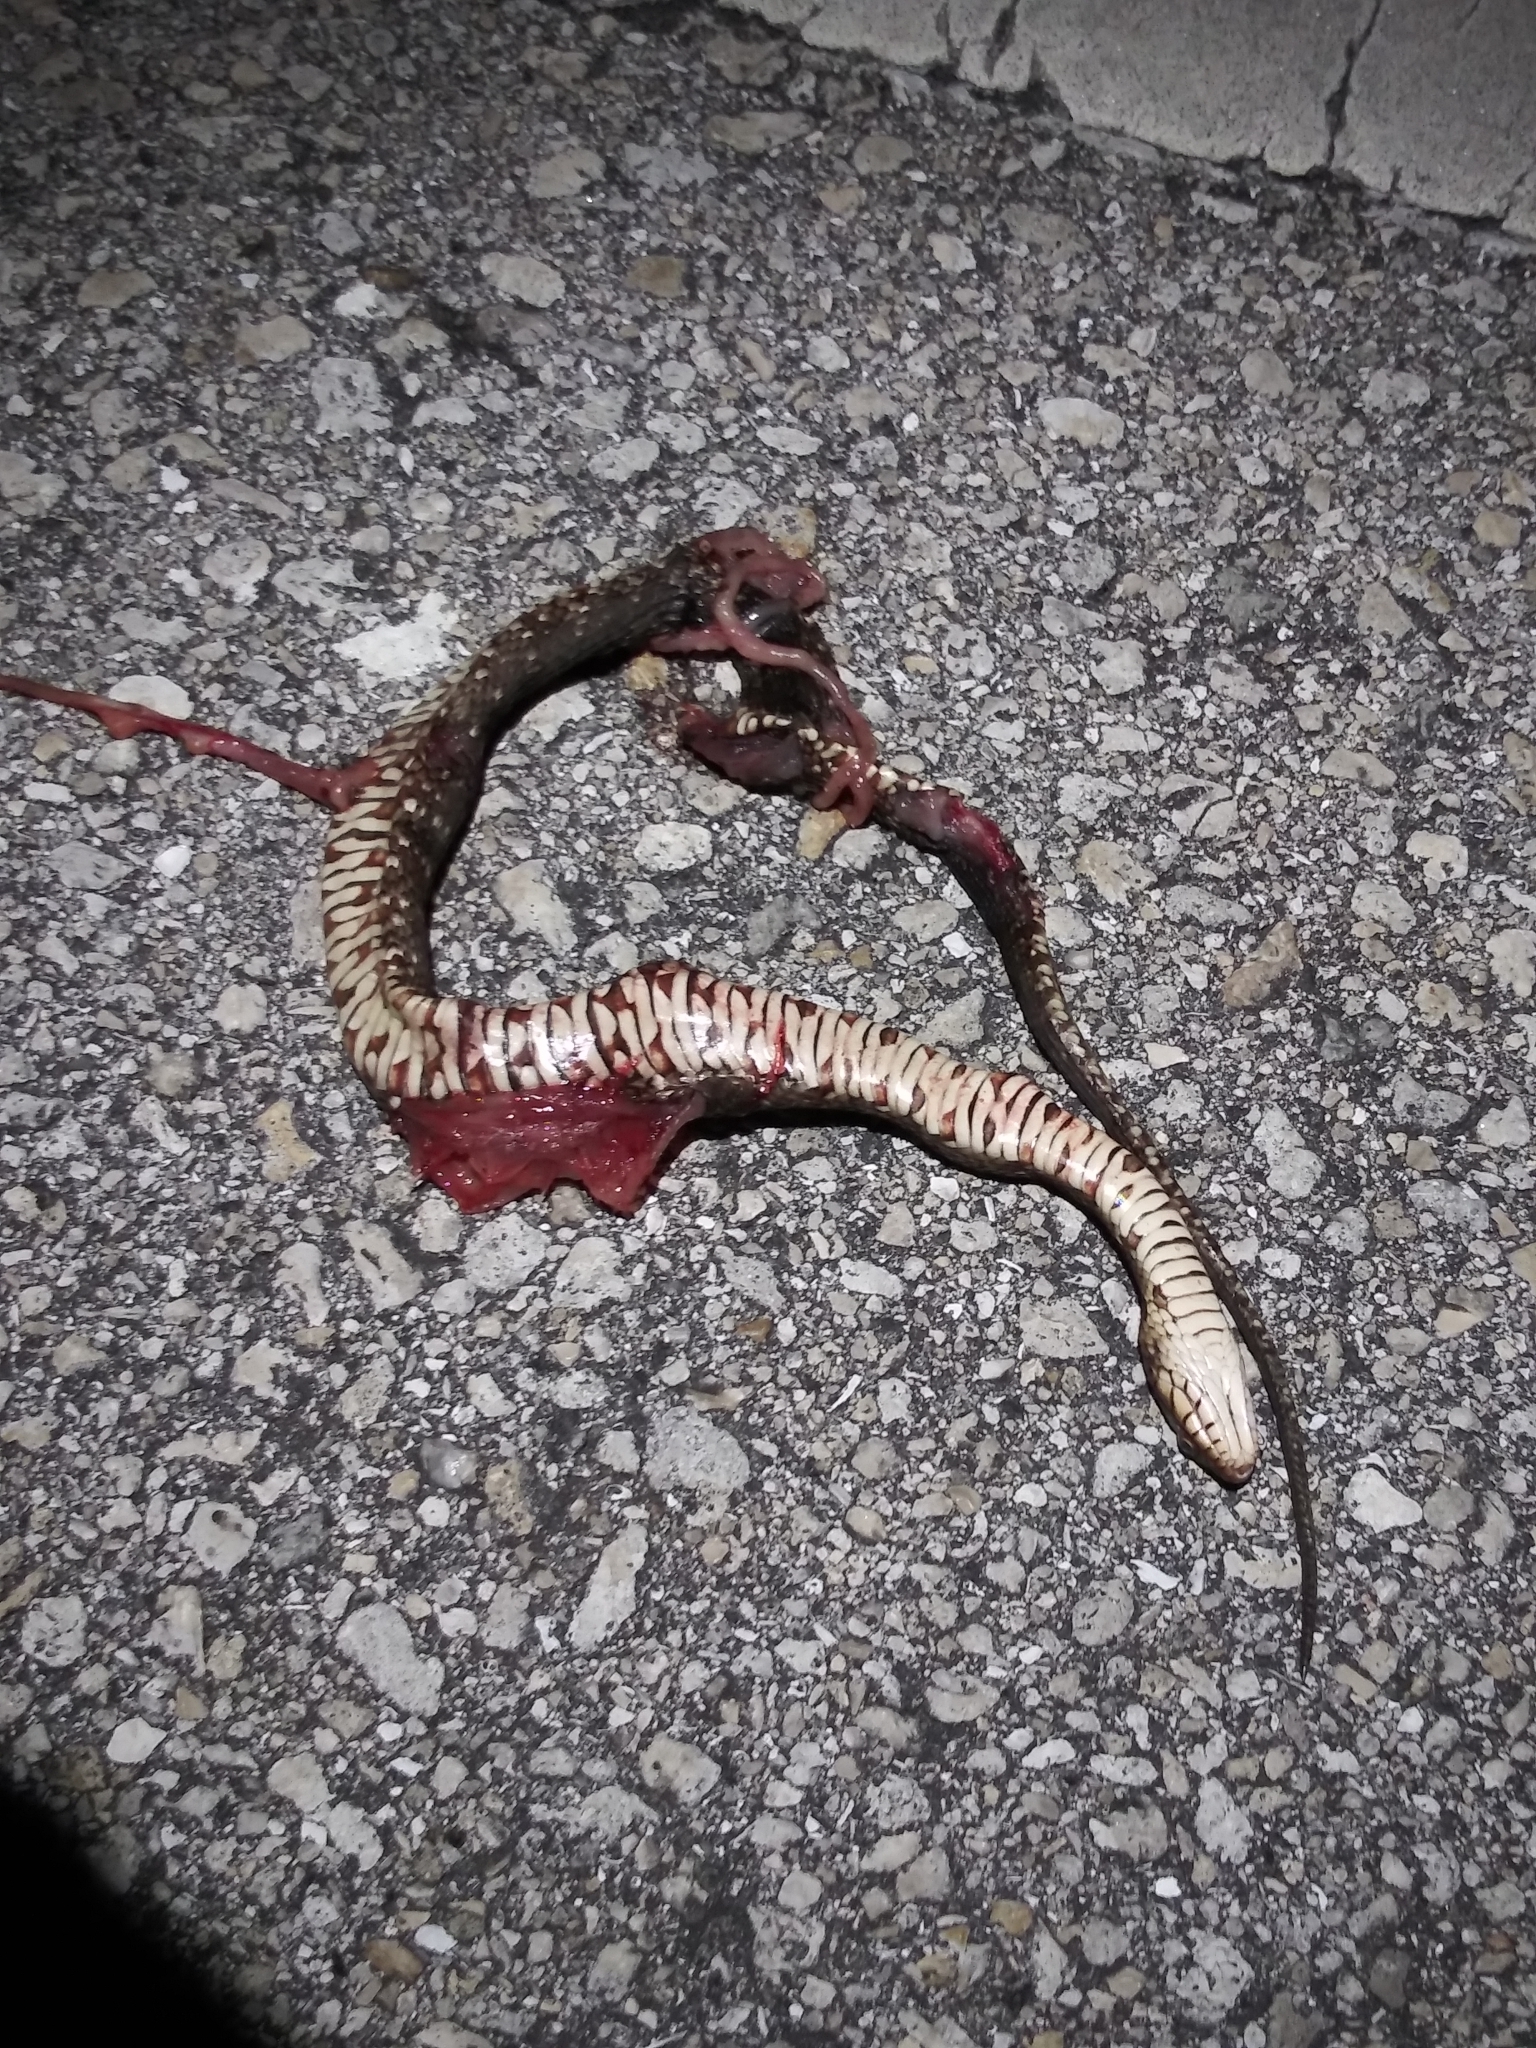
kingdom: Animalia
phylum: Chordata
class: Squamata
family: Colubridae
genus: Nerodia
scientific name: Nerodia fasciata
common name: Southern water snake
